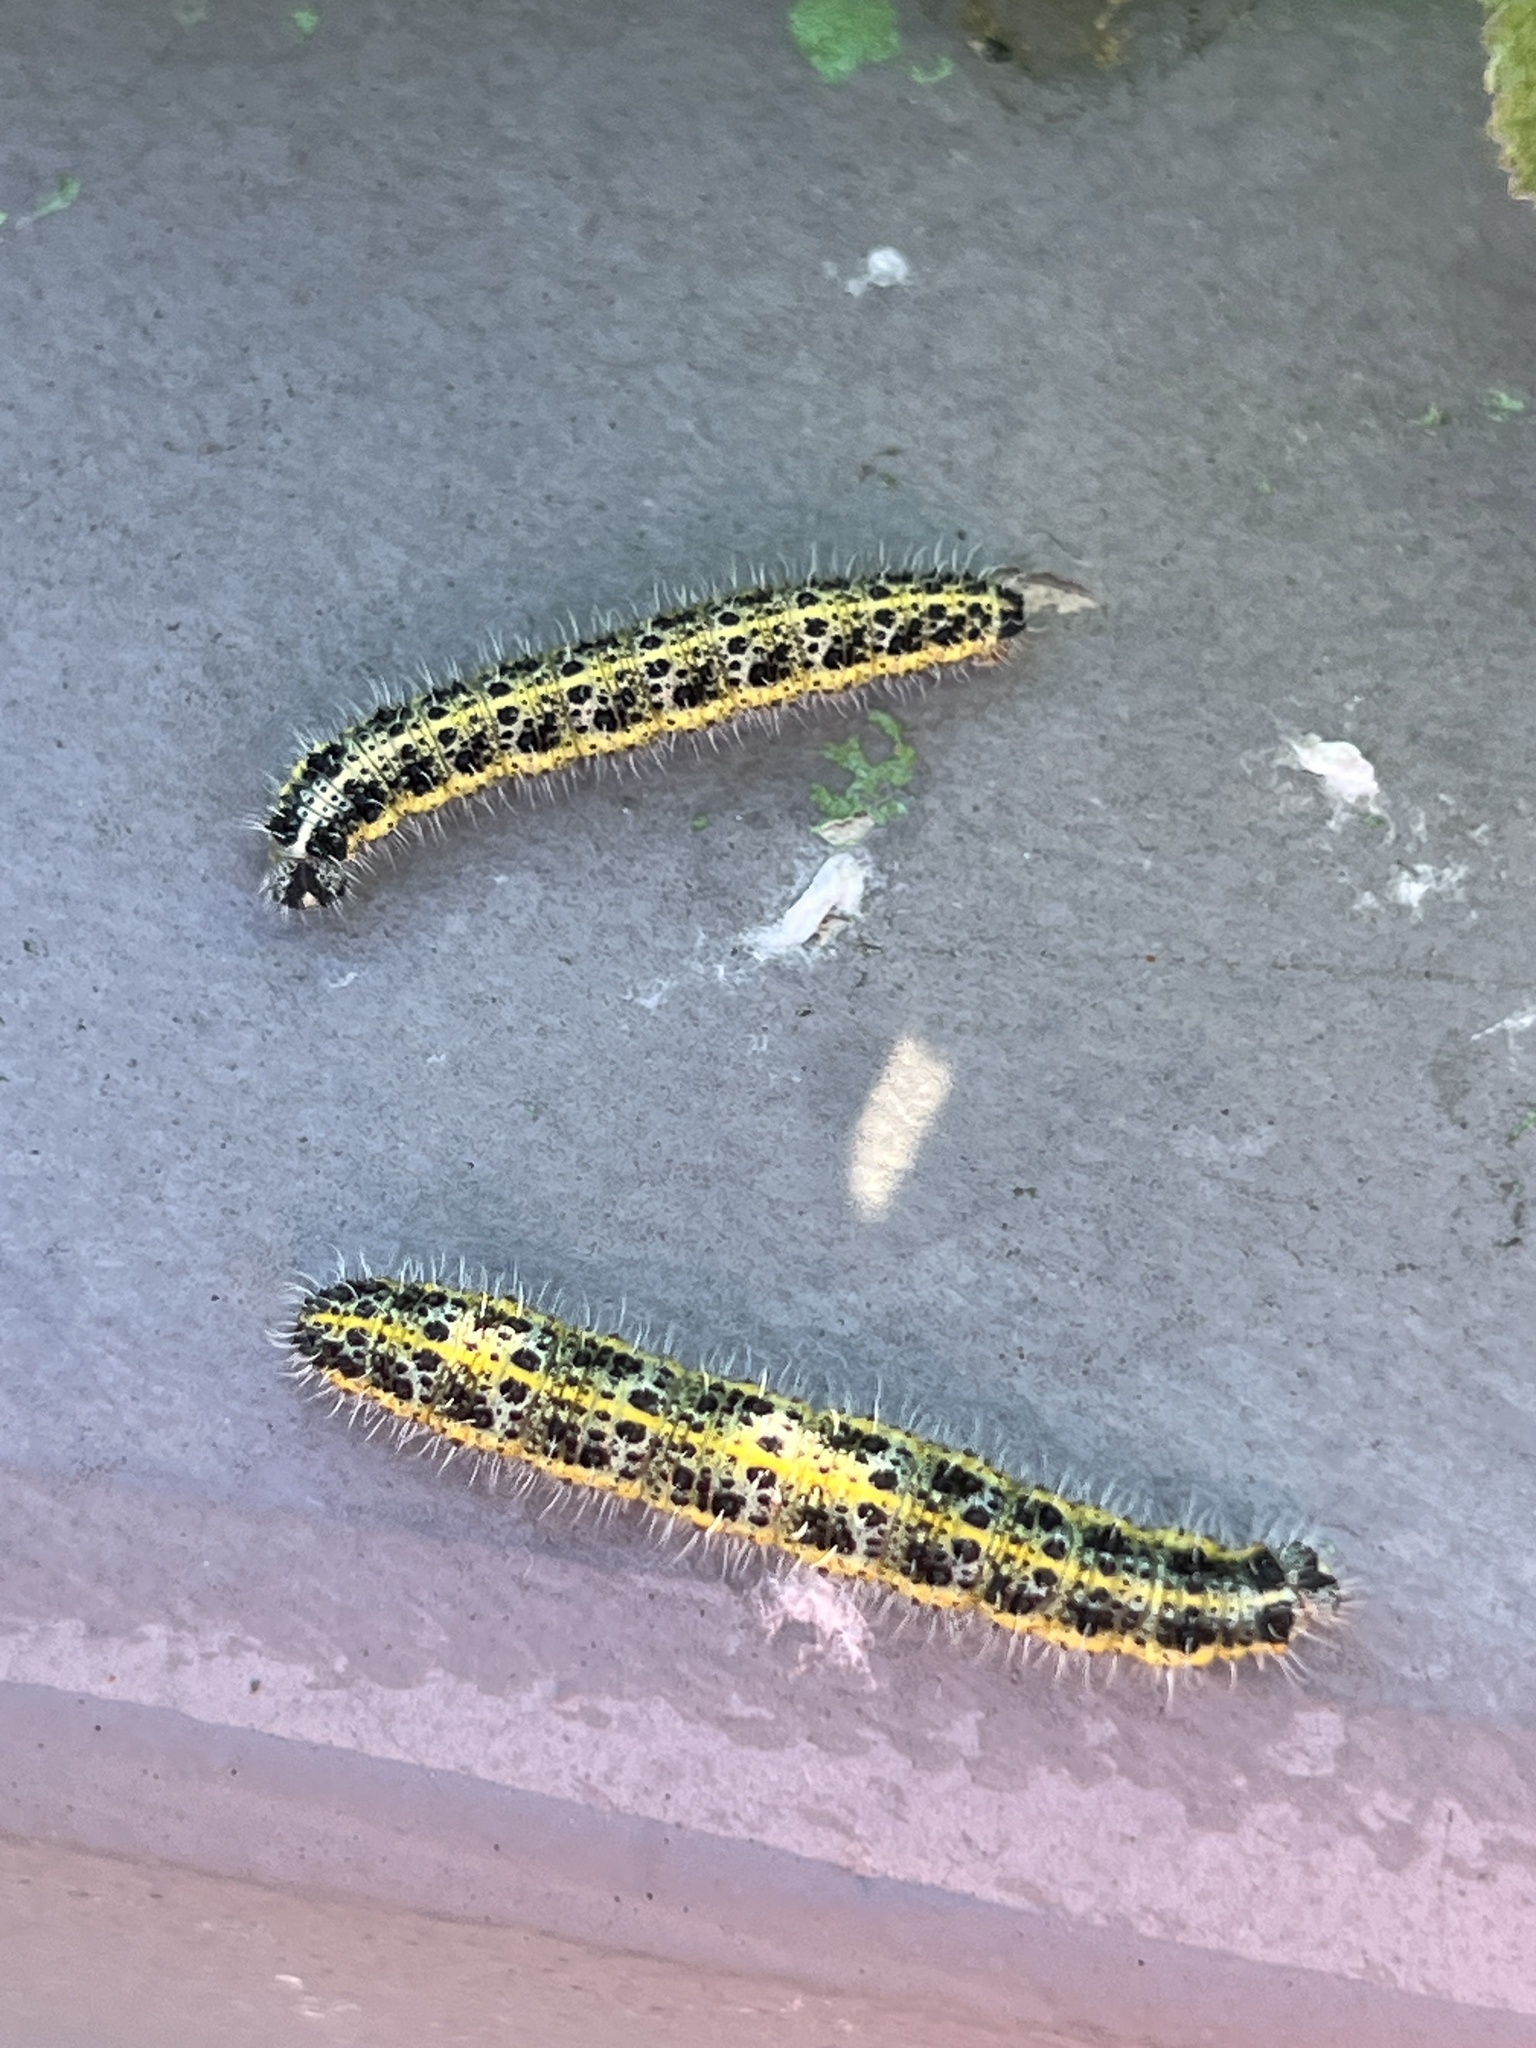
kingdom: Animalia
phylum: Arthropoda
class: Insecta
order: Lepidoptera
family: Pieridae
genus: Pieris
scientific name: Pieris brassicae
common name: Large white
